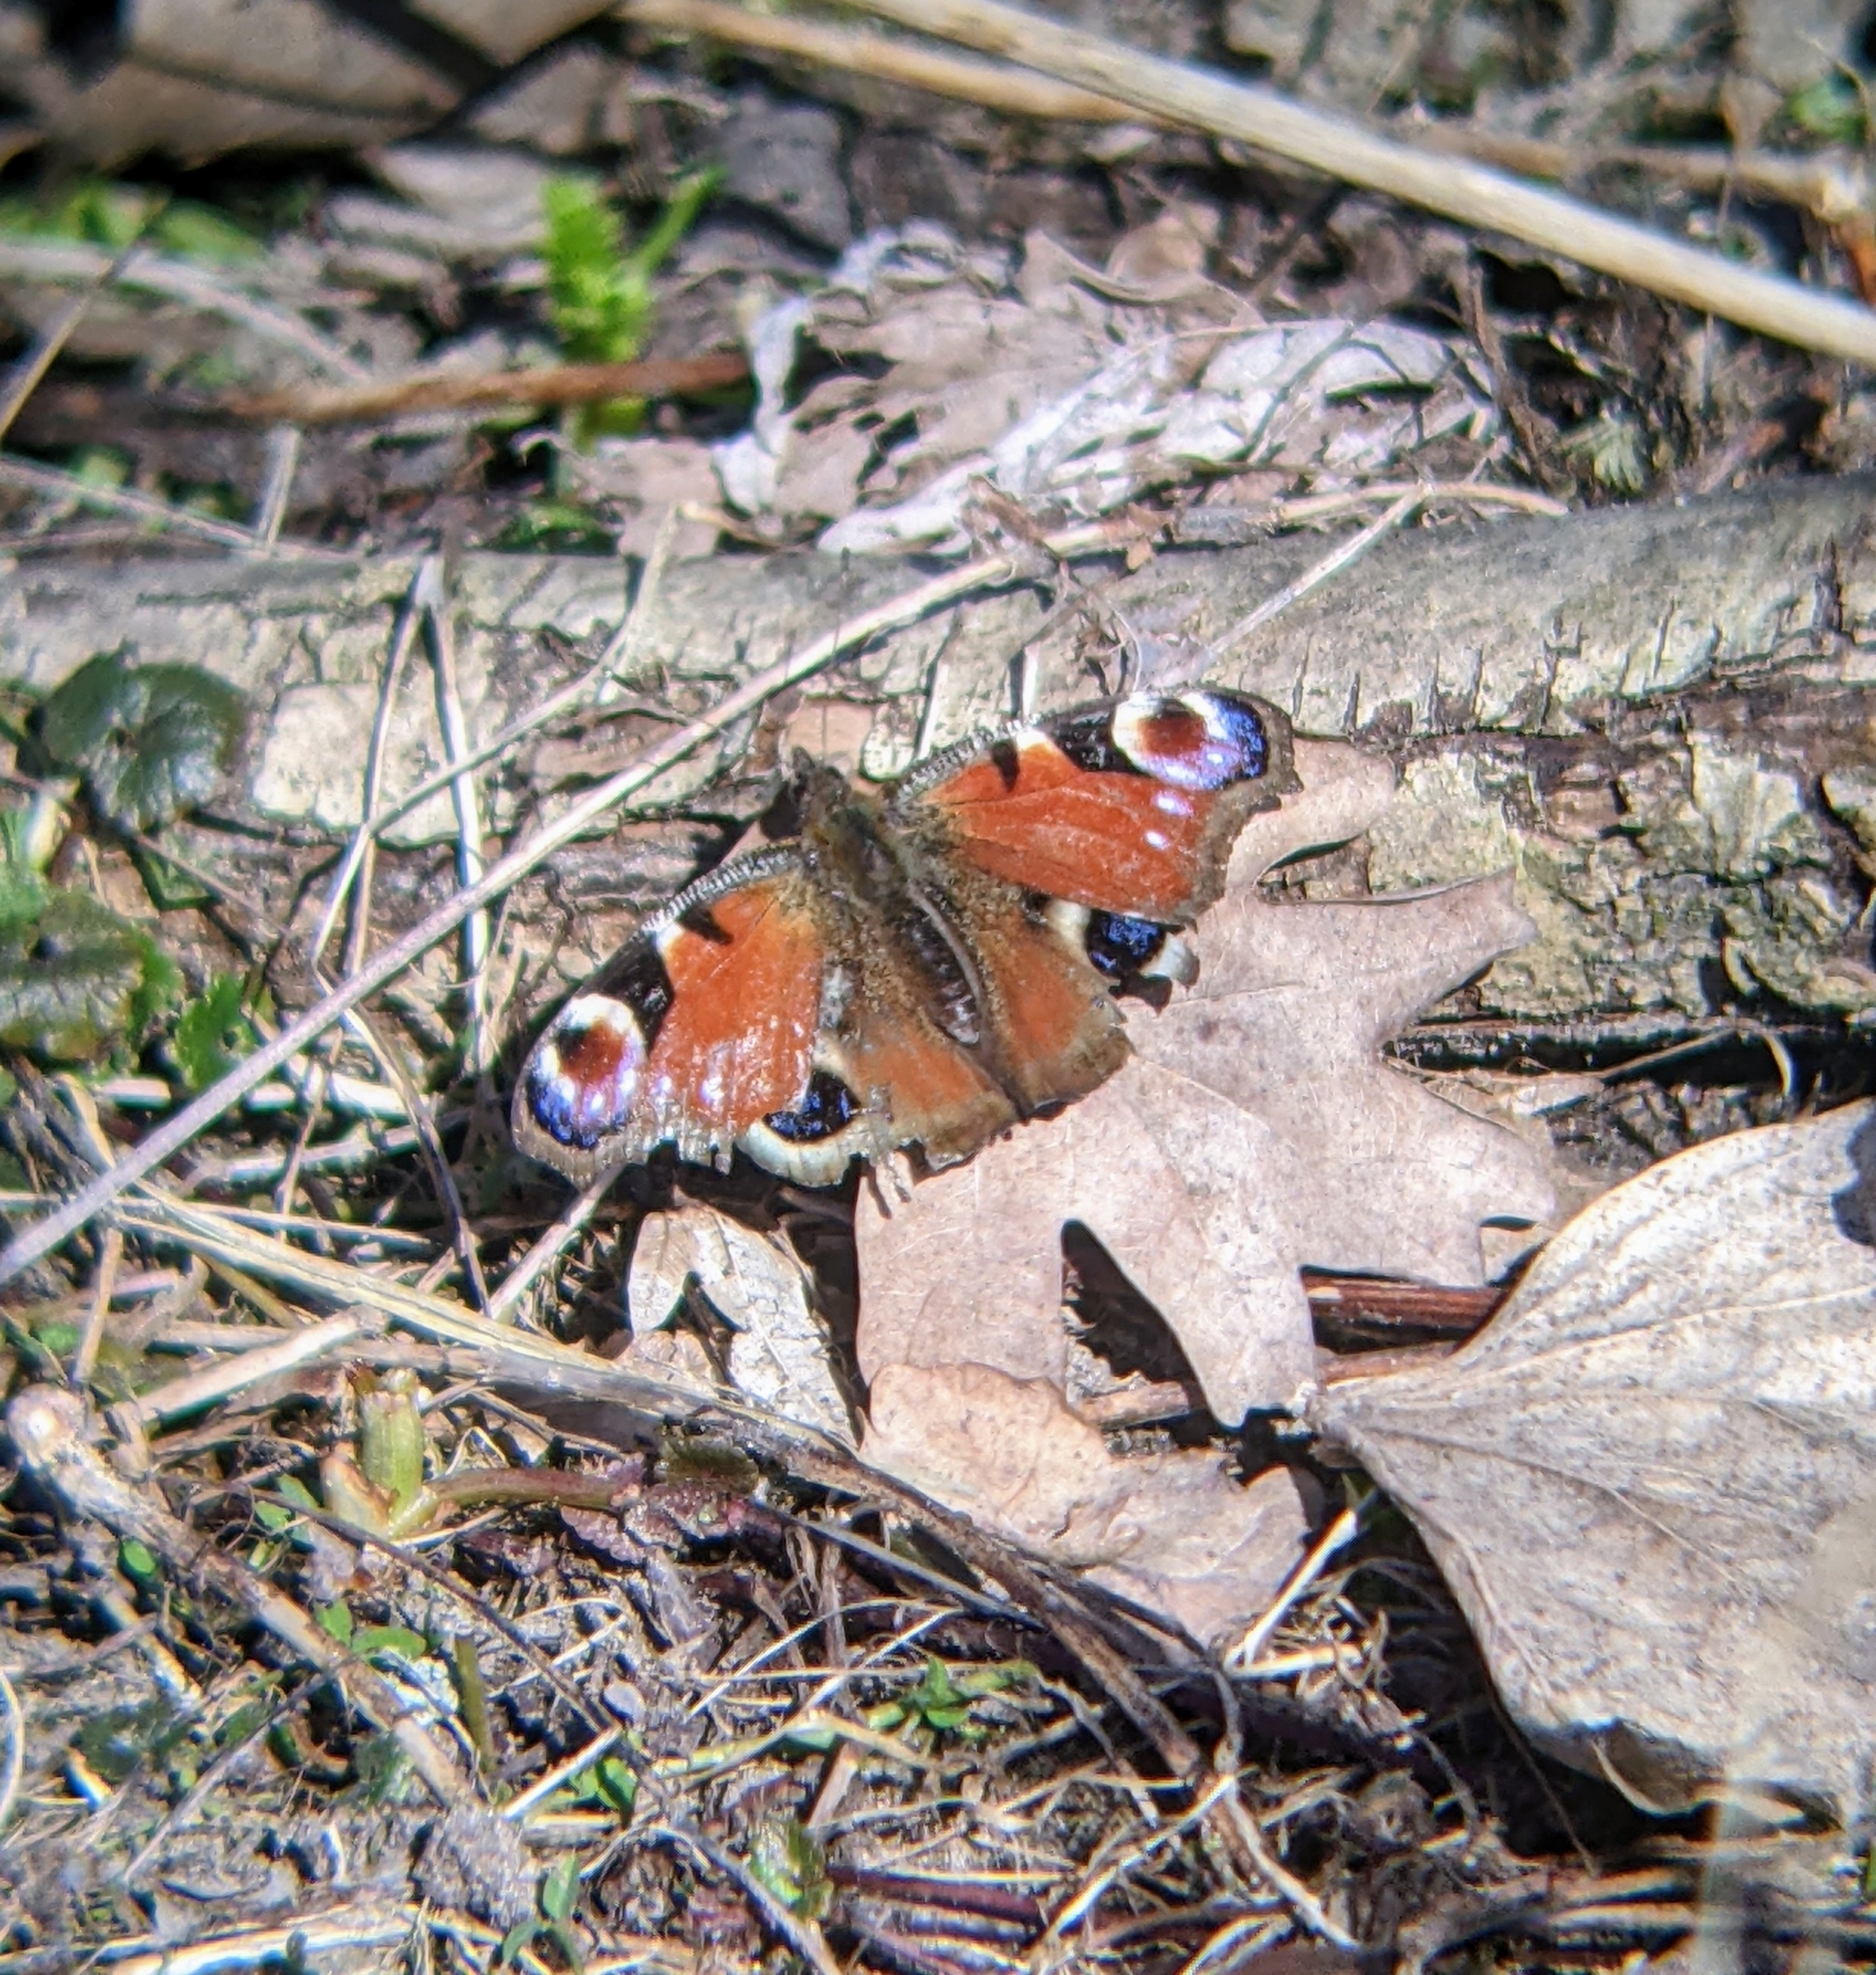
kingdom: Animalia
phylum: Arthropoda
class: Insecta
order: Lepidoptera
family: Nymphalidae
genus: Aglais
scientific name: Aglais io
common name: Peacock
